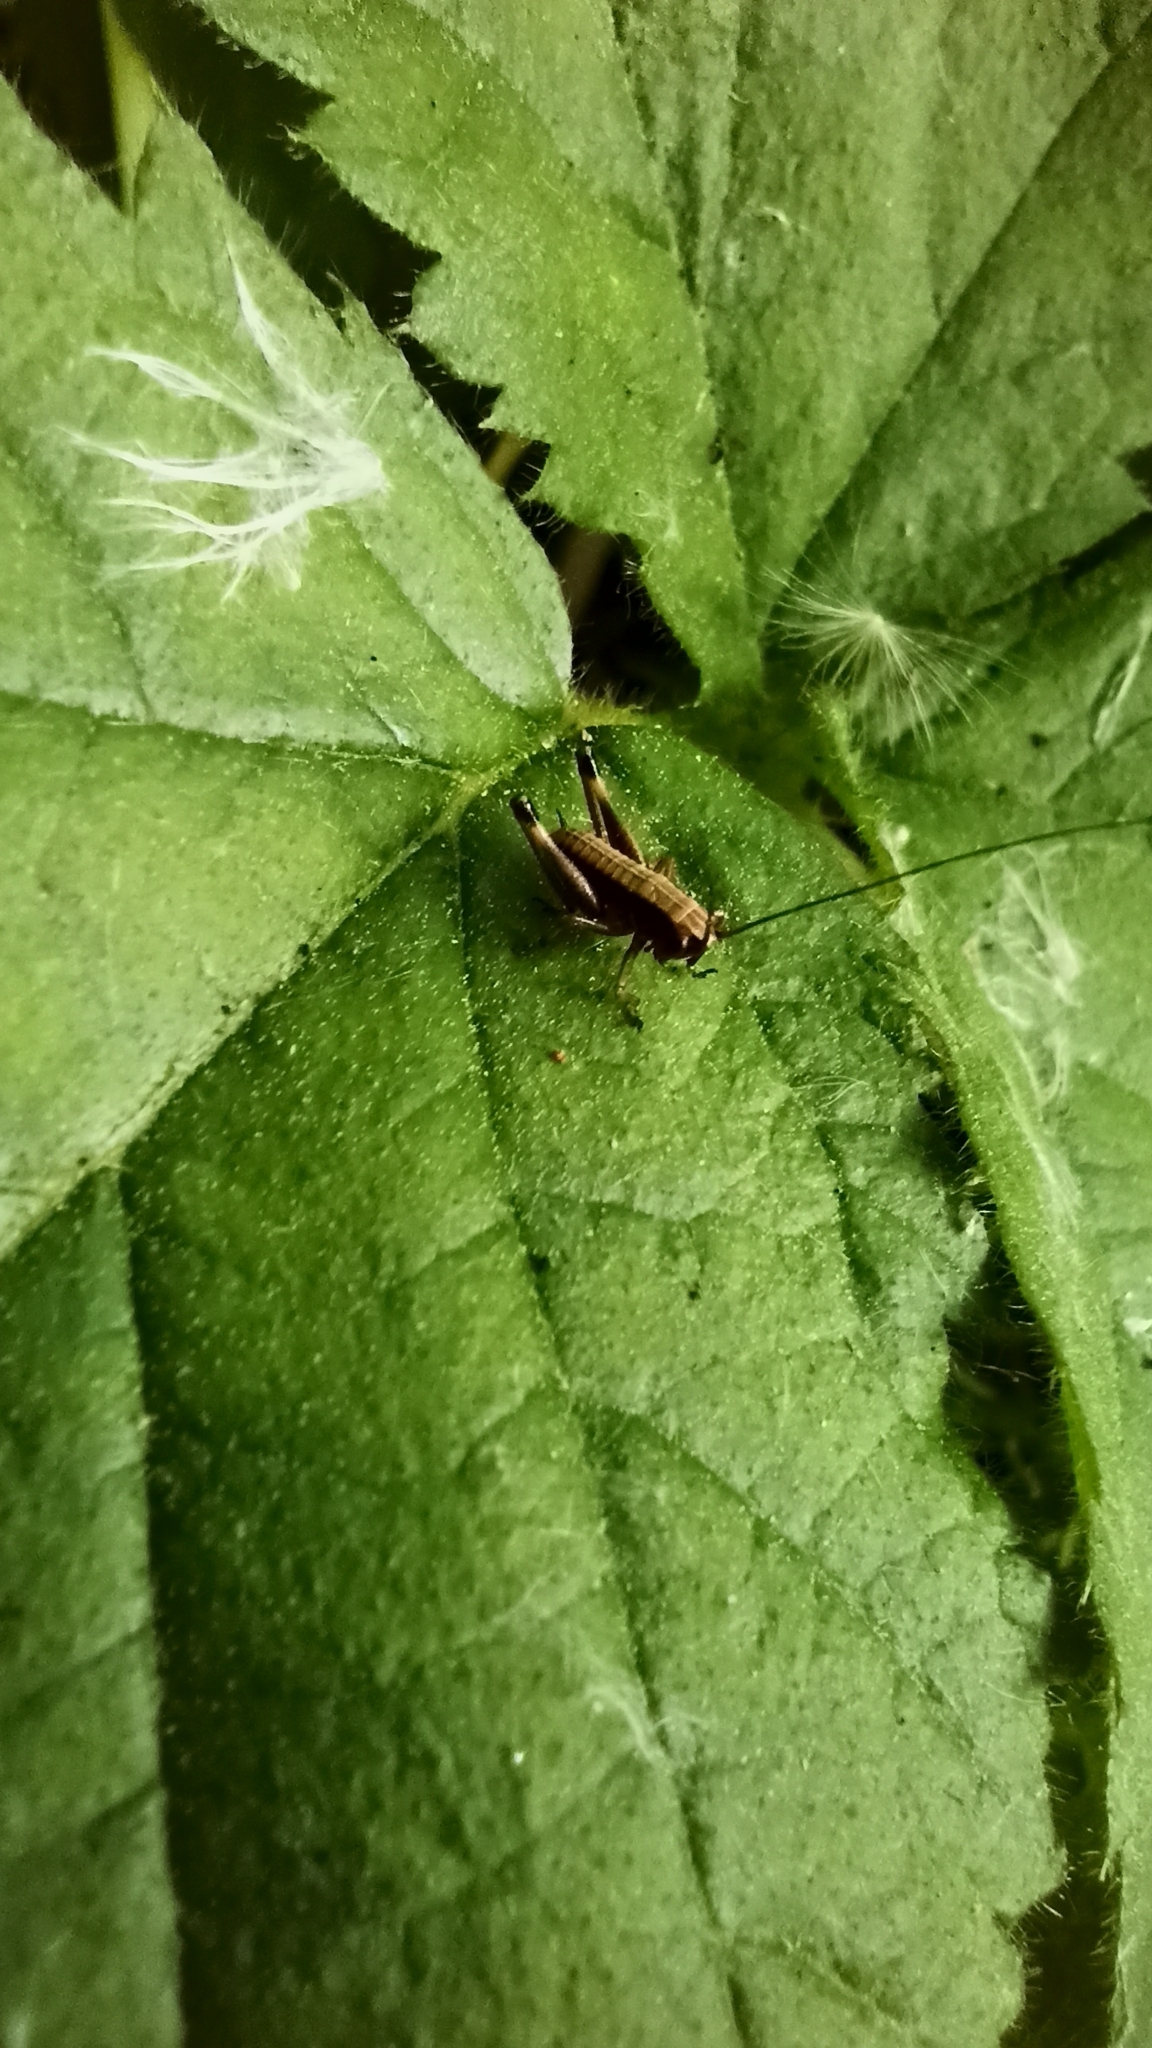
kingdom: Animalia
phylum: Arthropoda
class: Insecta
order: Orthoptera
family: Tettigoniidae
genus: Pholidoptera
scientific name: Pholidoptera griseoaptera
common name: Dark bush-cricket
